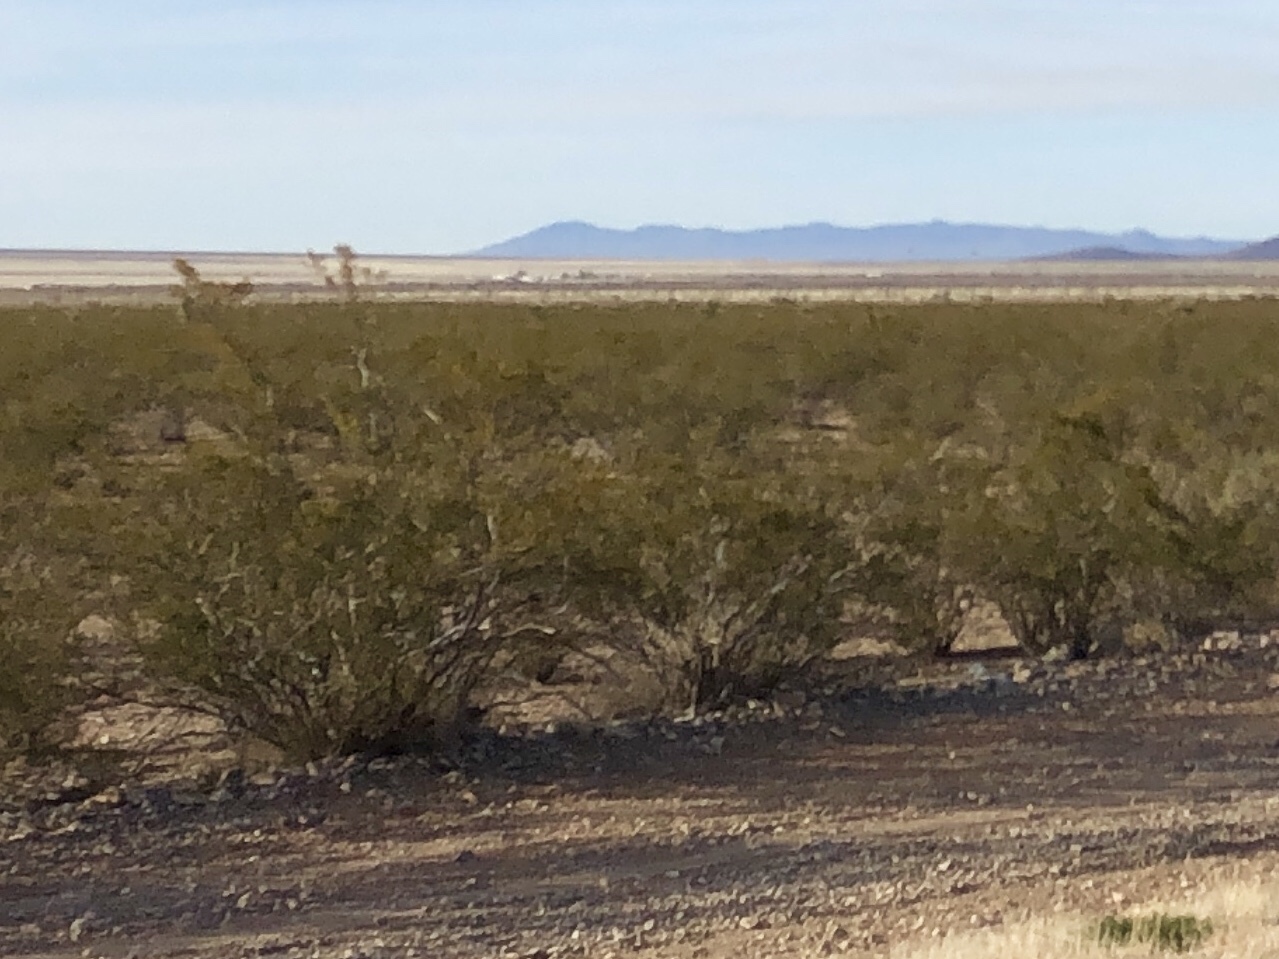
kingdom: Plantae
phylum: Tracheophyta
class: Magnoliopsida
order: Zygophyllales
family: Zygophyllaceae
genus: Larrea
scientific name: Larrea tridentata
